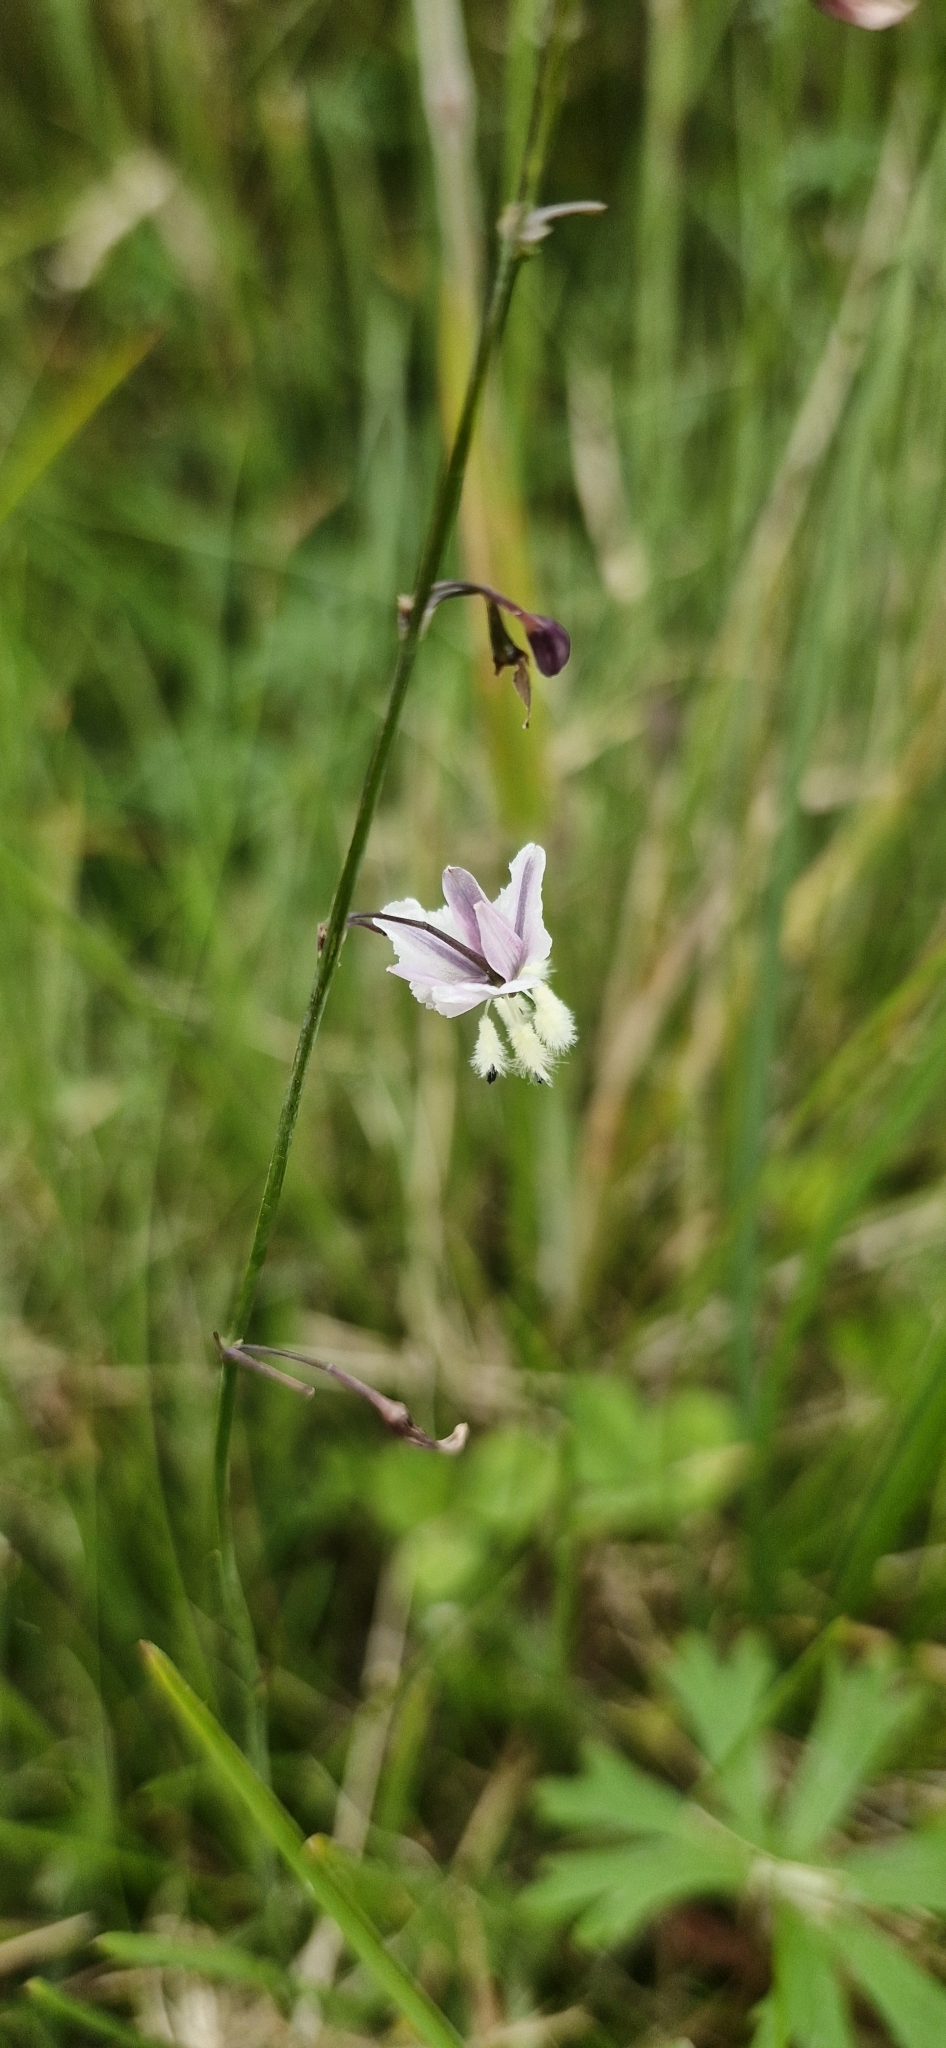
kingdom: Plantae
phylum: Tracheophyta
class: Liliopsida
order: Asparagales
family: Asparagaceae
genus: Arthropodium
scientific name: Arthropodium milleflorum
